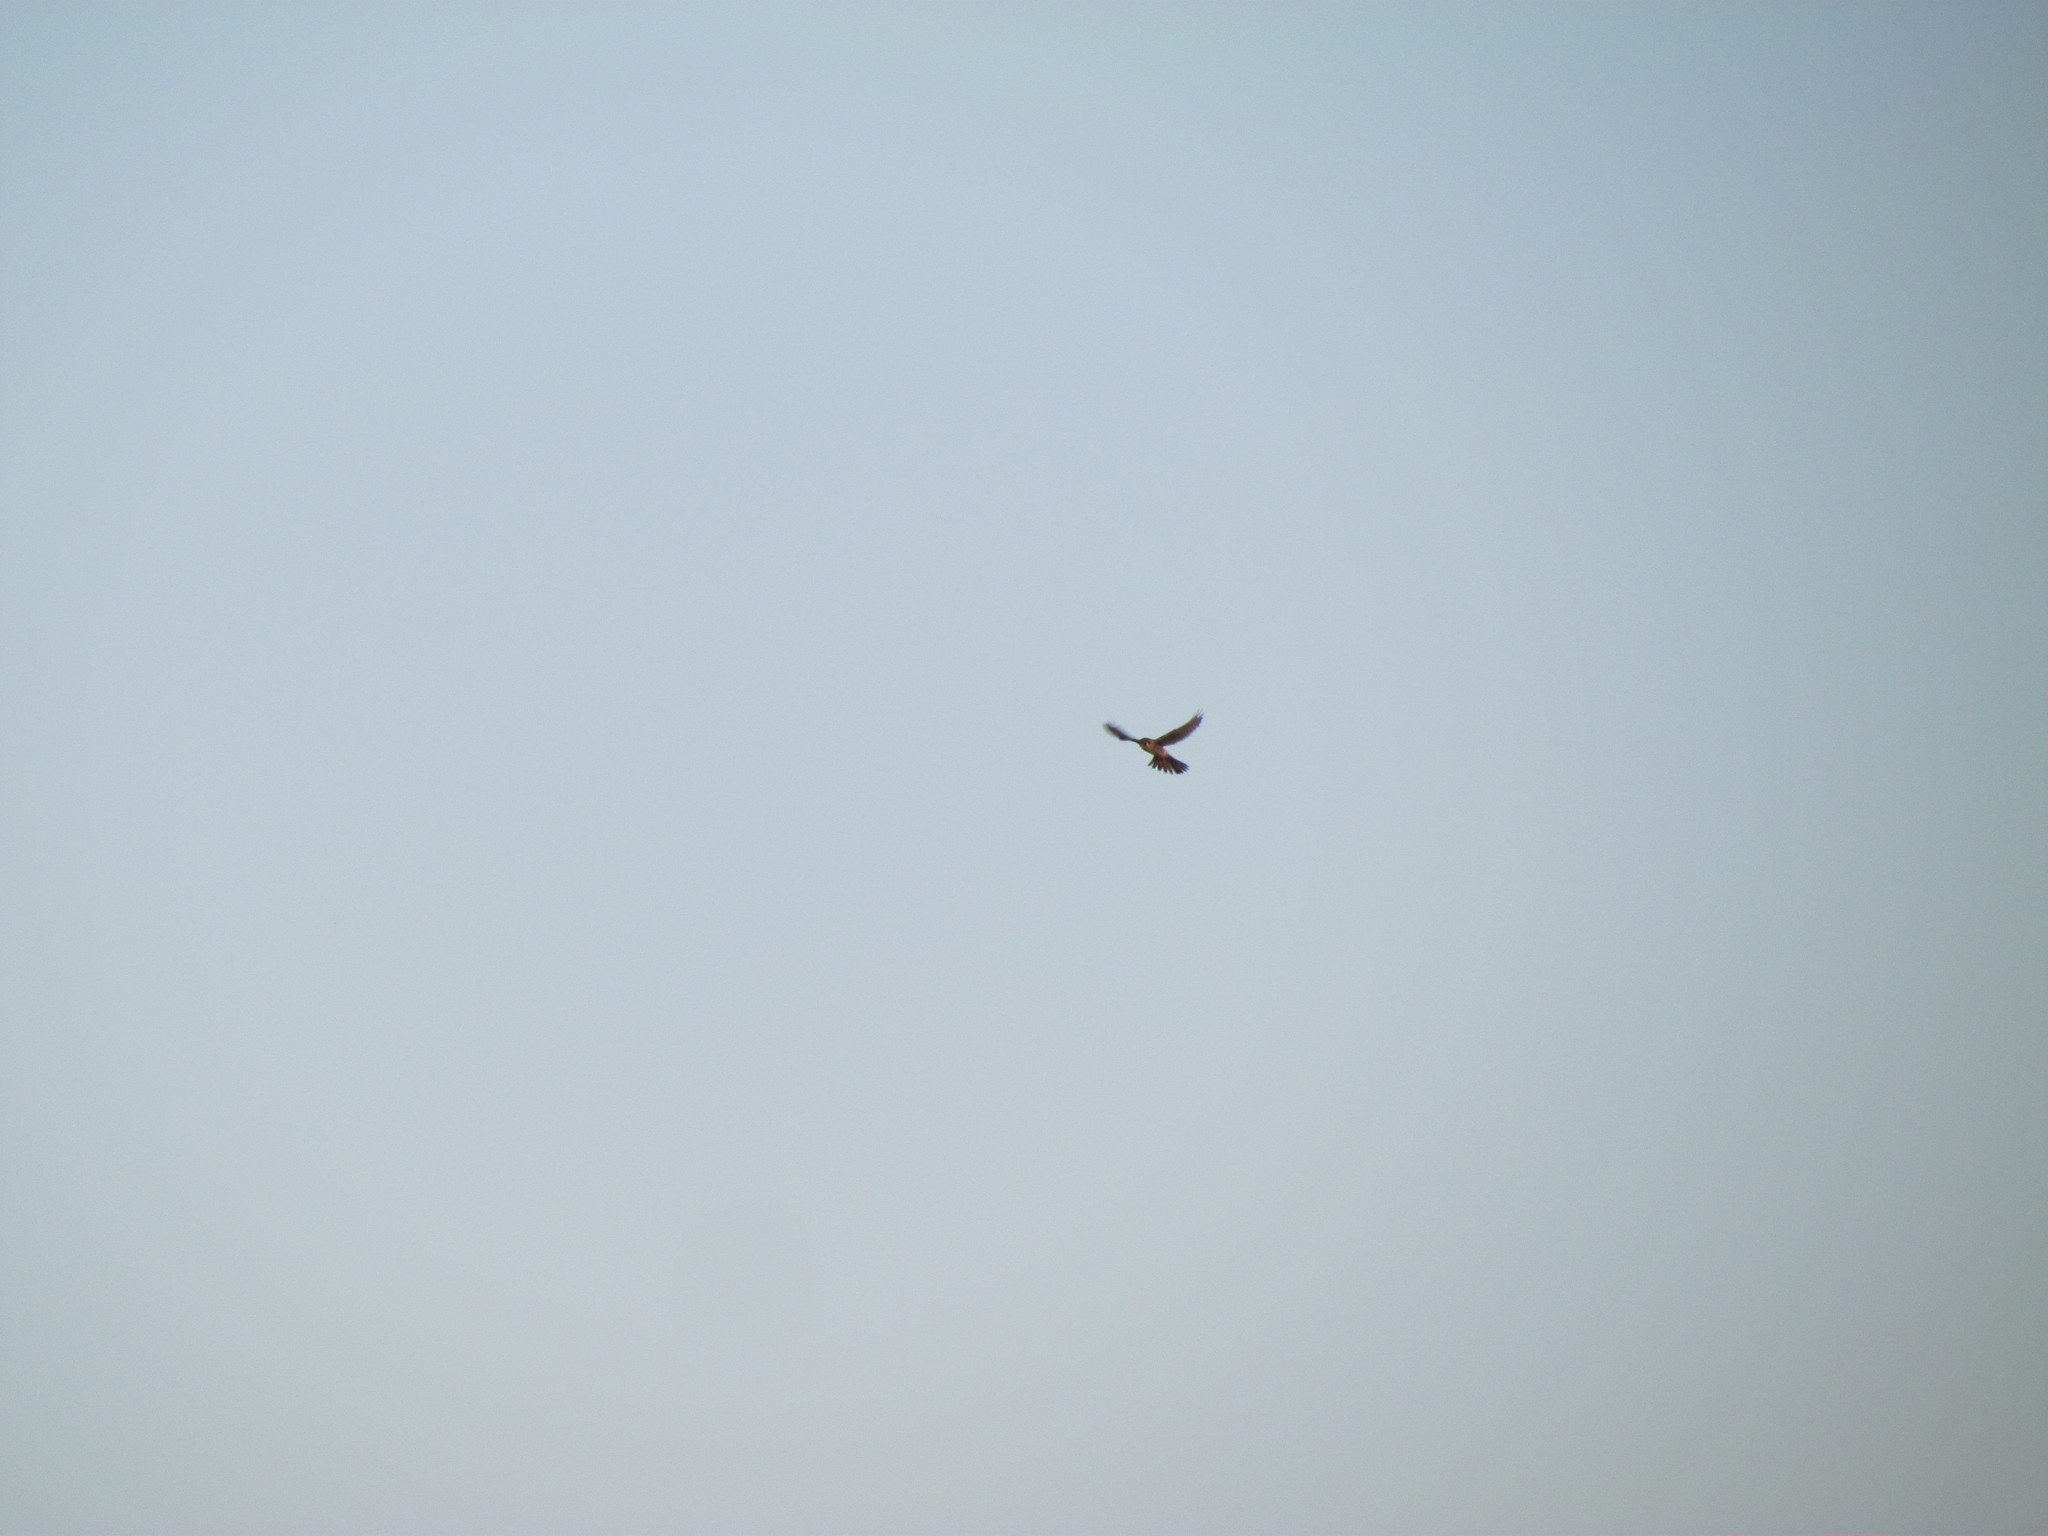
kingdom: Animalia
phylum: Chordata
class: Aves
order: Falconiformes
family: Falconidae
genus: Falco
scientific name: Falco sparverius
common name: American kestrel
